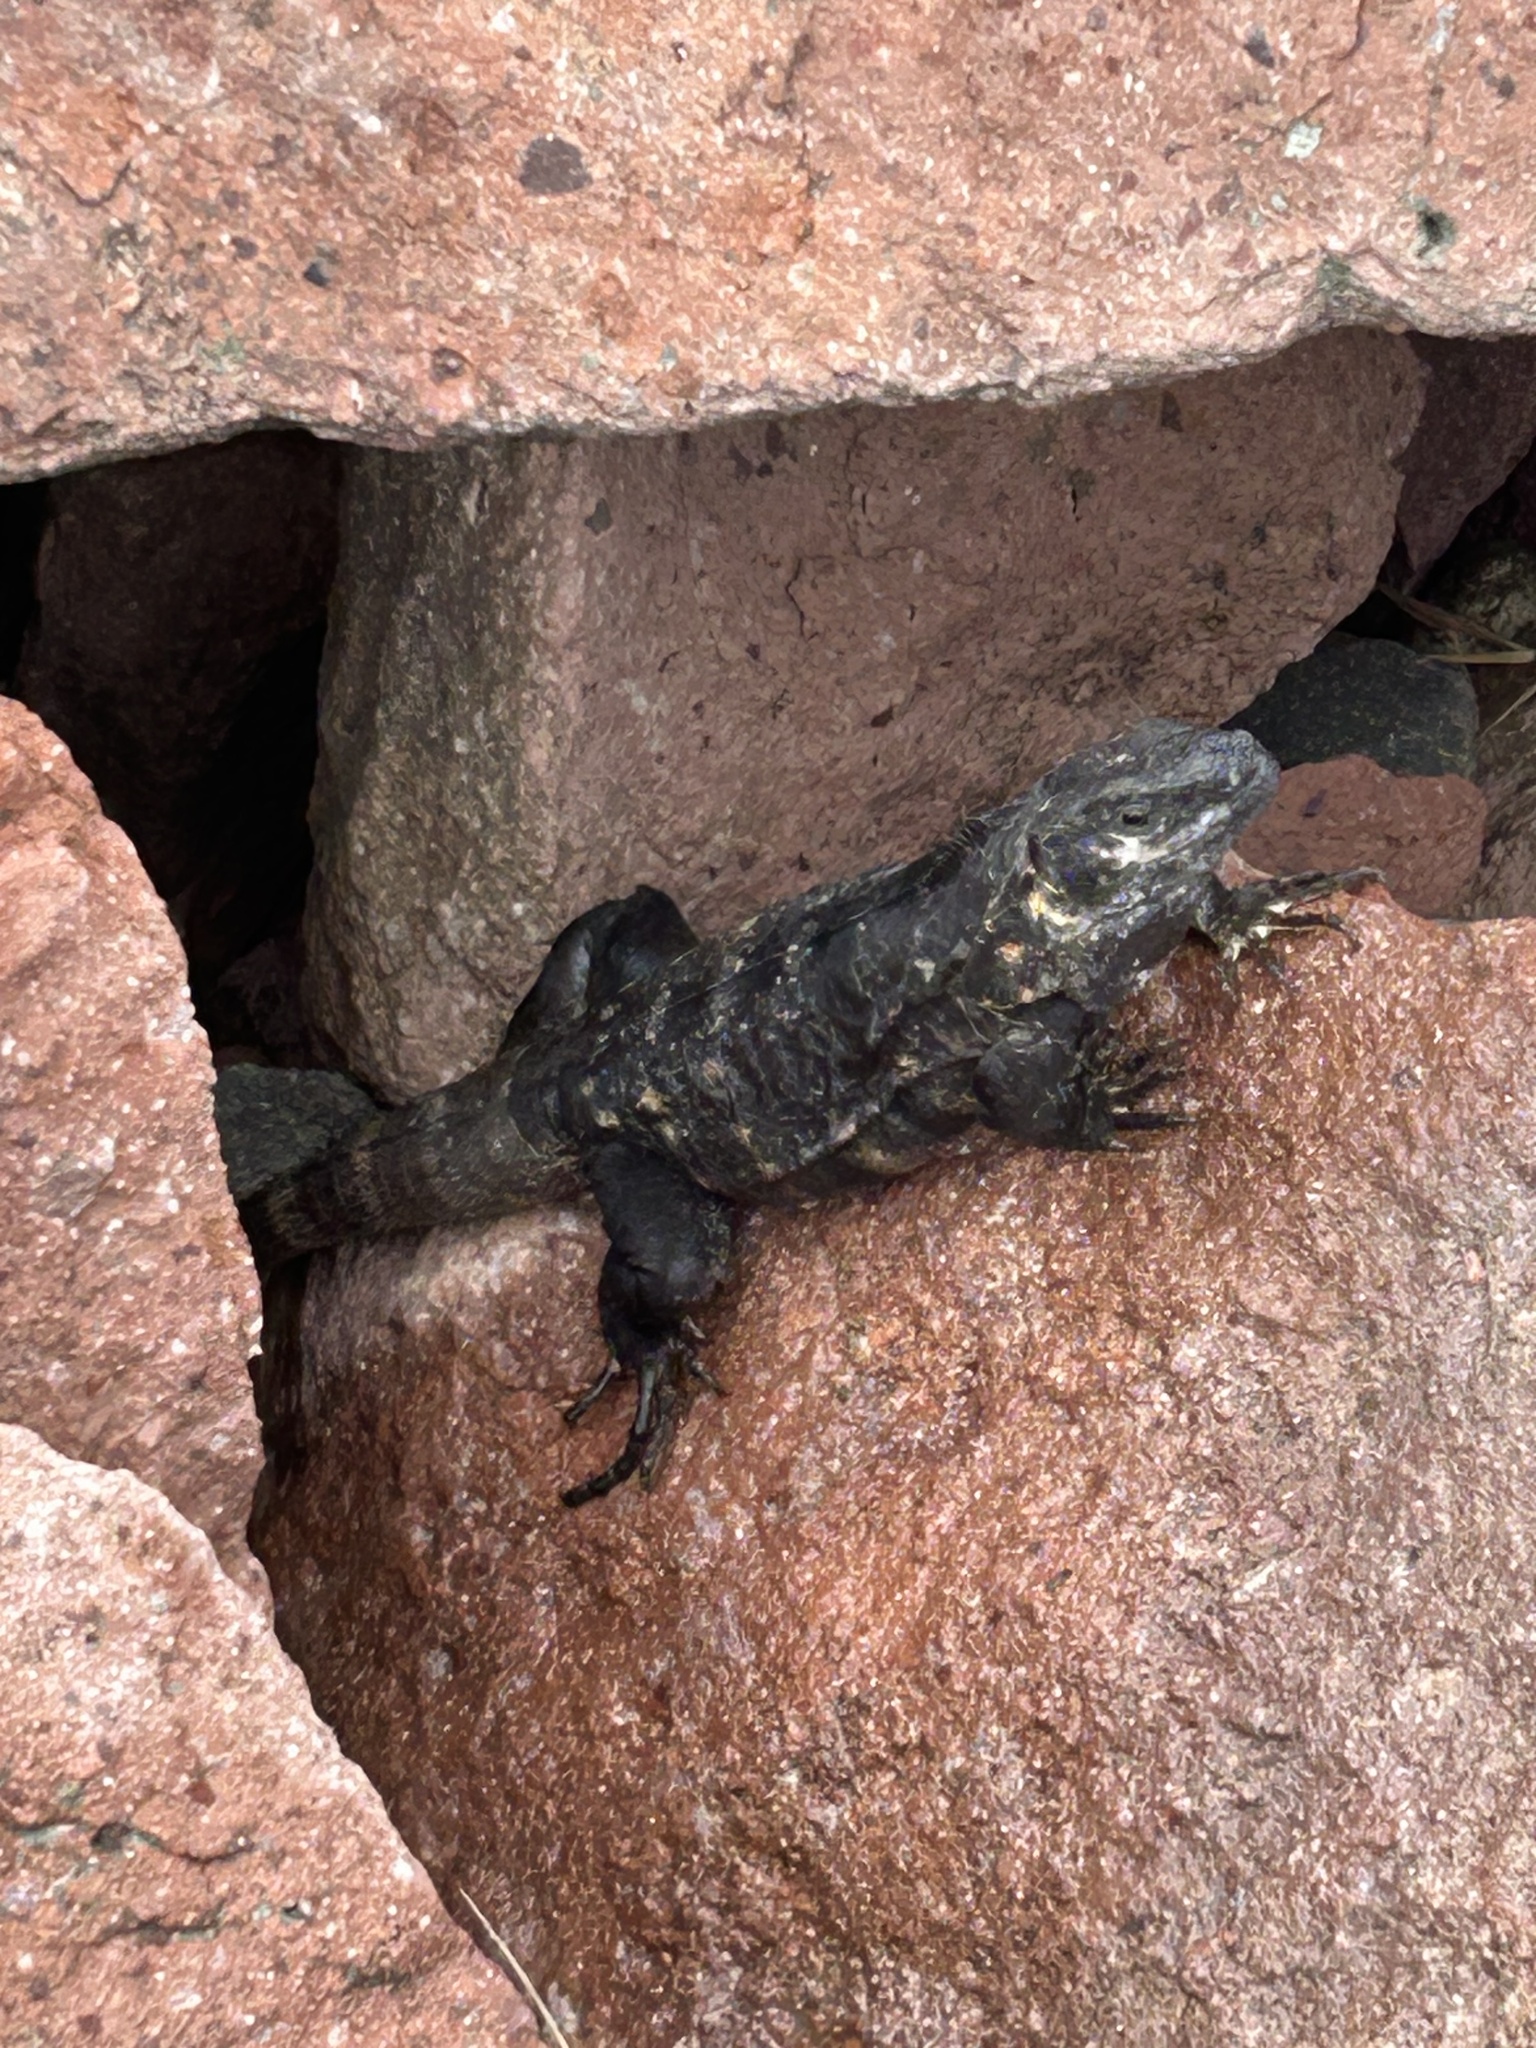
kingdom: Animalia
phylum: Chordata
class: Squamata
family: Iguanidae
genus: Ctenosaura
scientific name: Ctenosaura pectinata
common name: Guerreran spiny-tailed iguana
